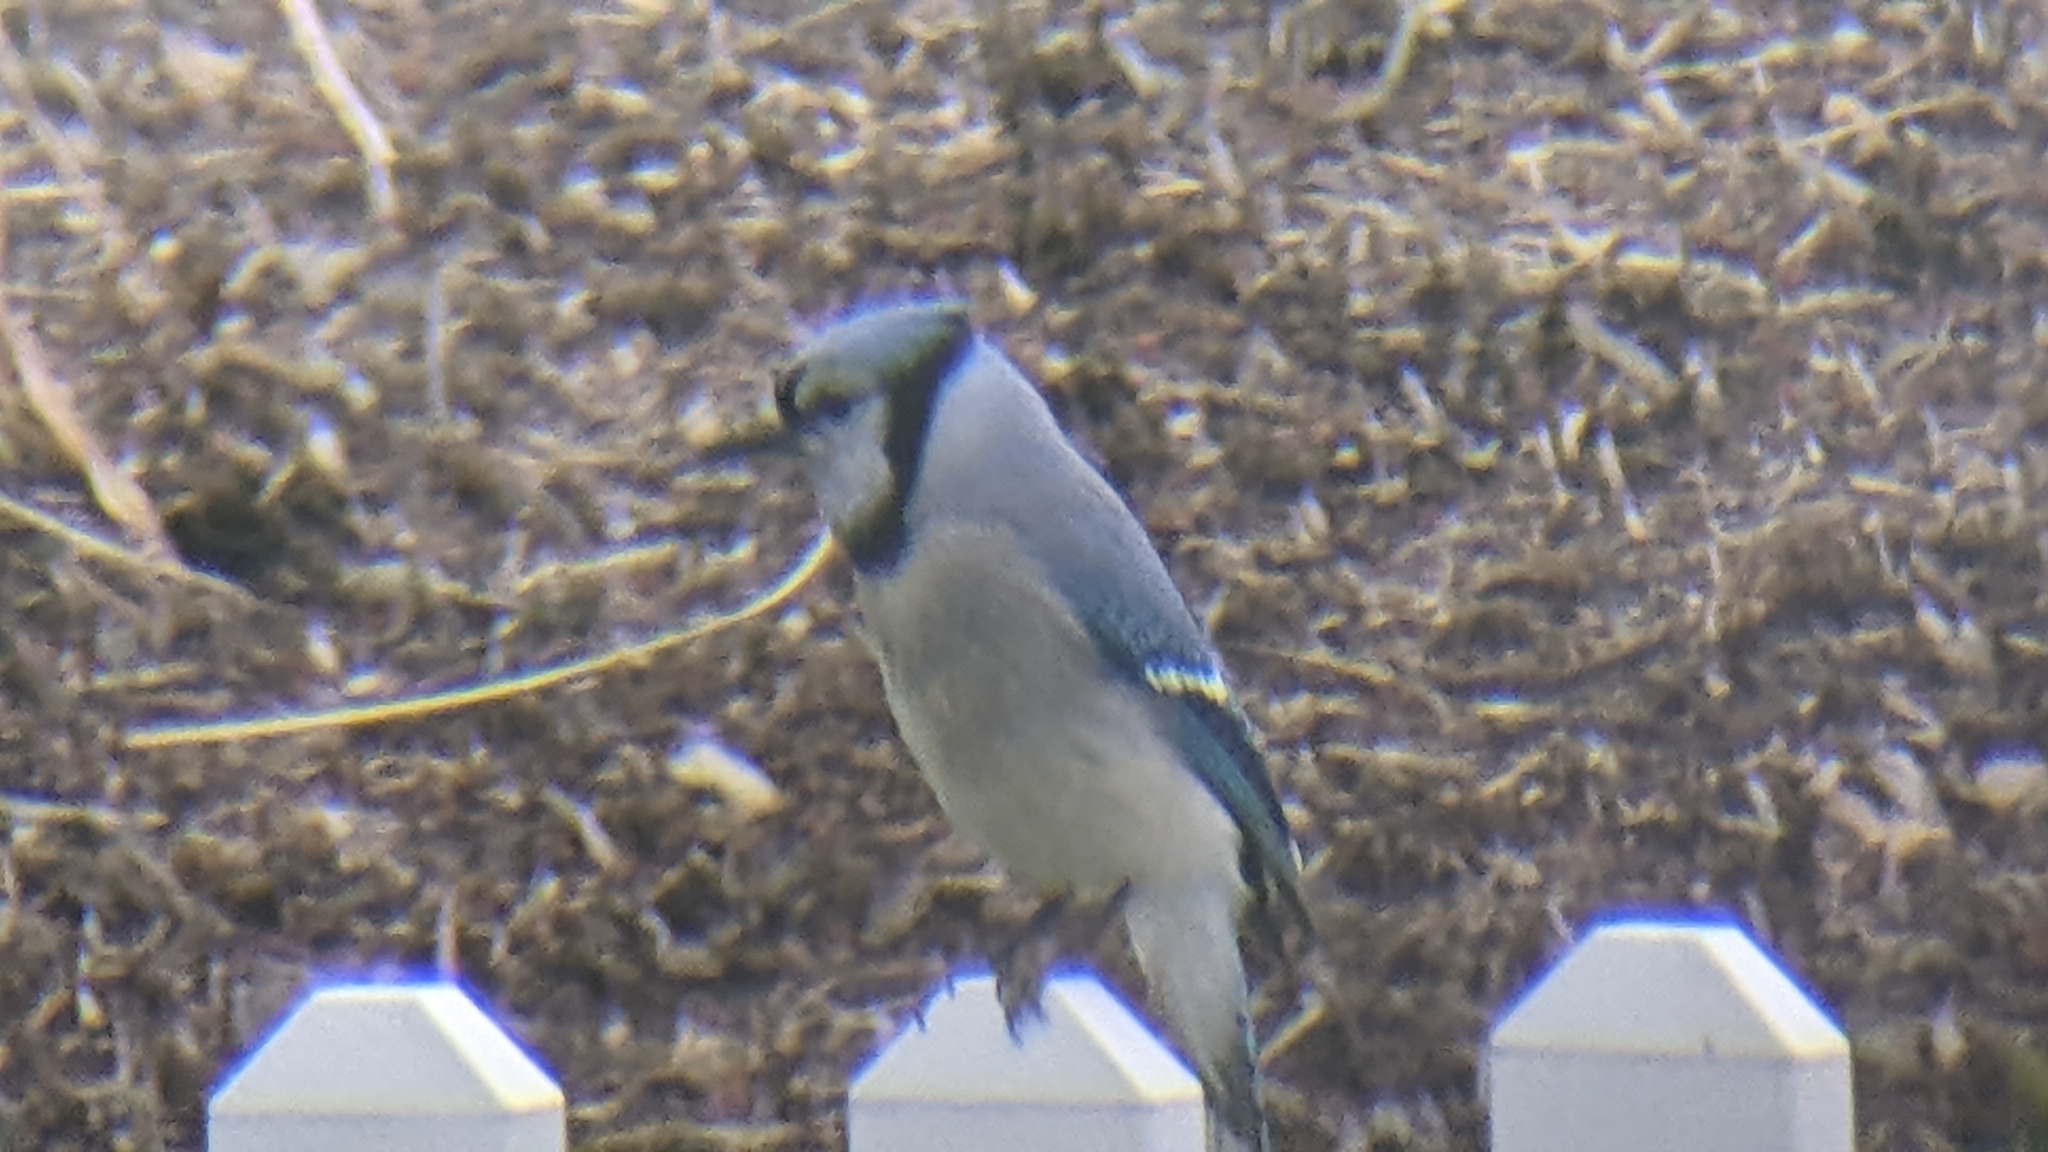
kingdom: Animalia
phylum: Chordata
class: Aves
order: Passeriformes
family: Corvidae
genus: Cyanocitta
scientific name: Cyanocitta cristata
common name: Blue jay
